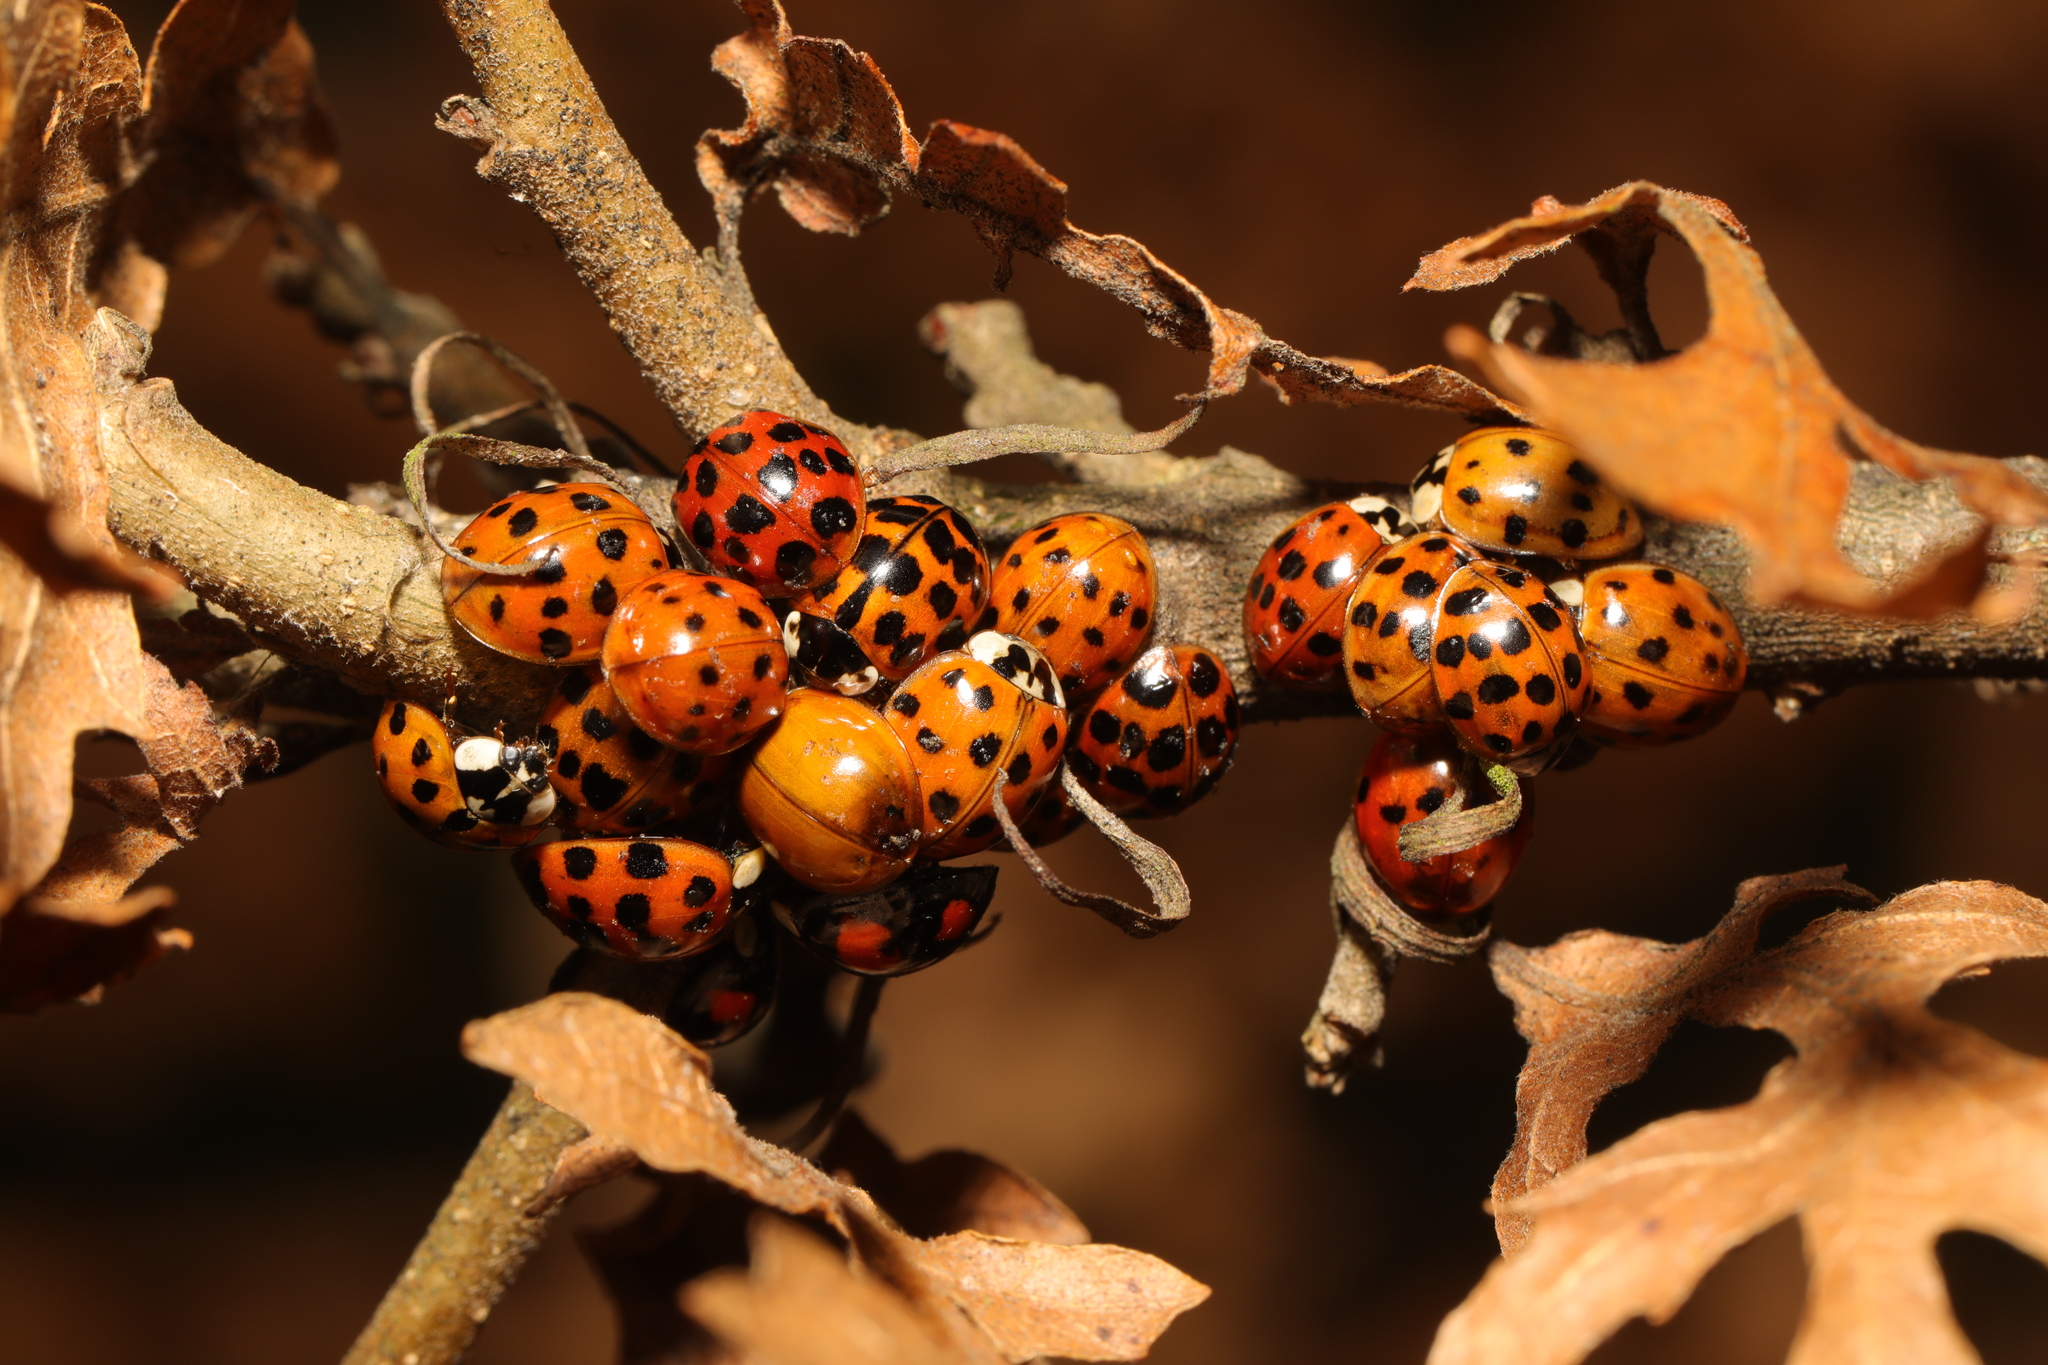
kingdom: Animalia
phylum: Arthropoda
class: Insecta
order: Coleoptera
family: Coccinellidae
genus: Harmonia
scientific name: Harmonia axyridis
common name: Harlequin ladybird
